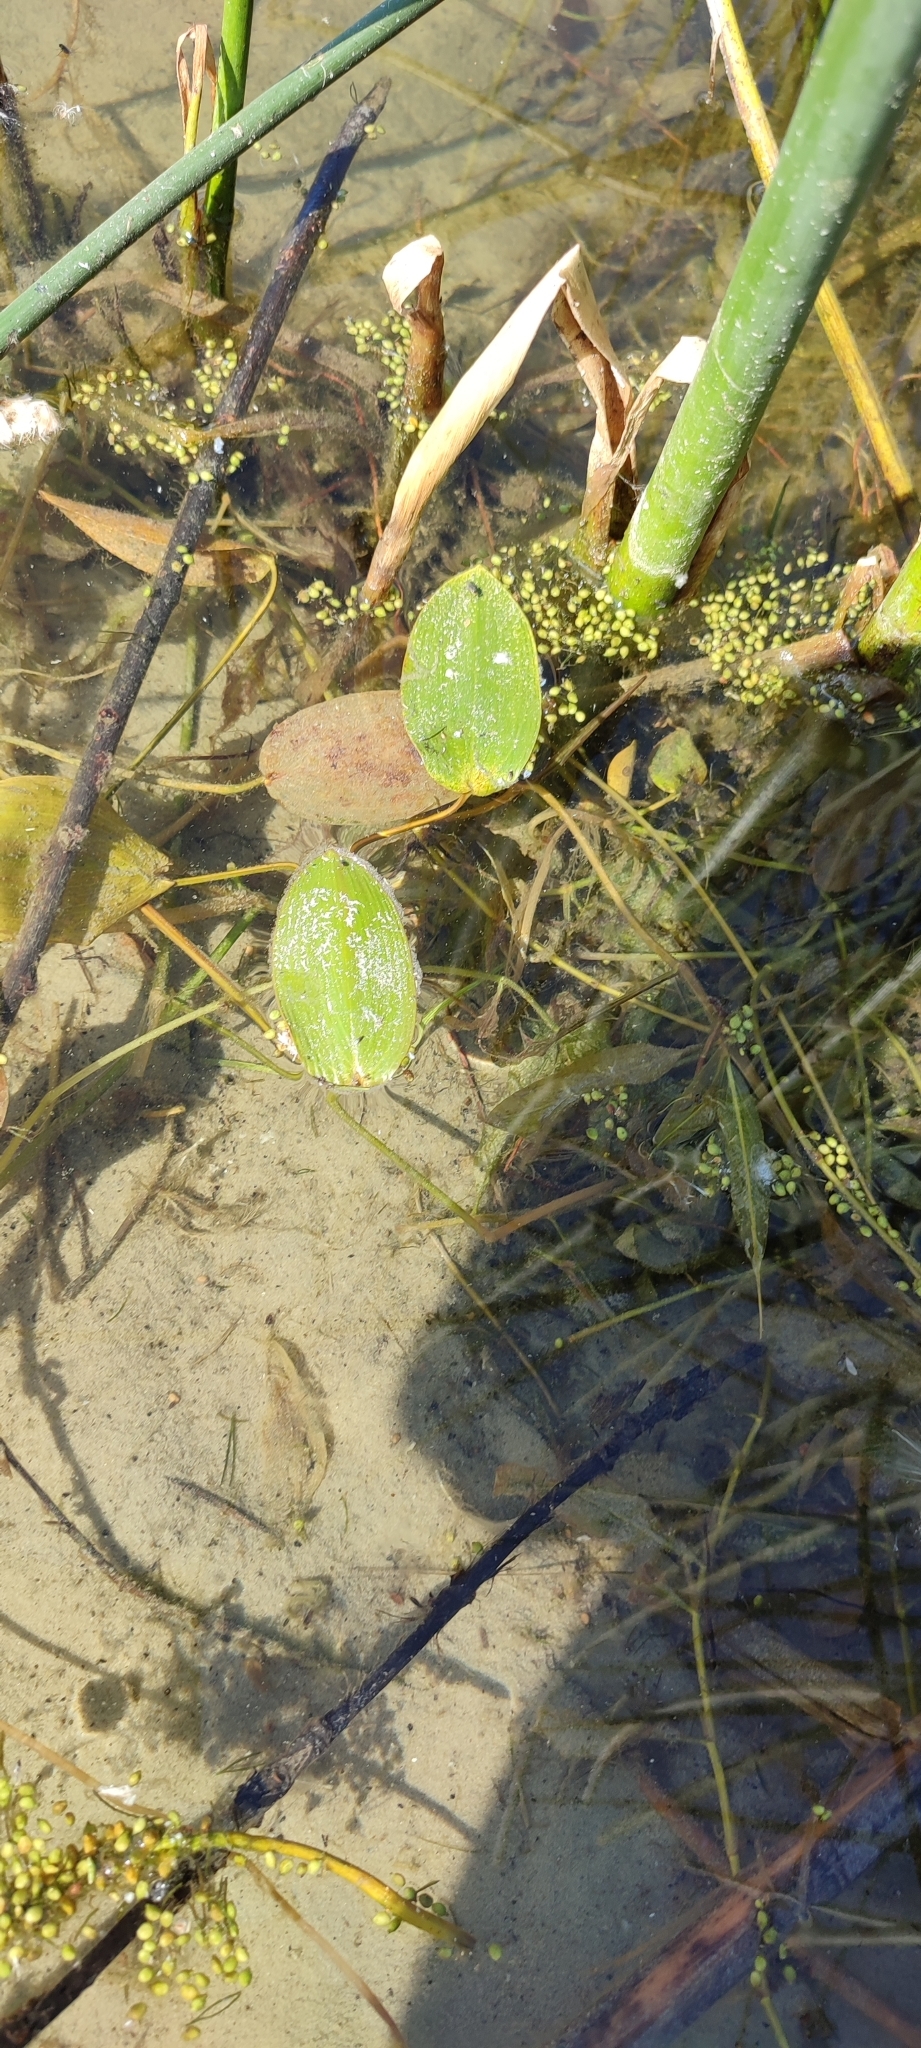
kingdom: Plantae
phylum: Tracheophyta
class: Liliopsida
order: Alismatales
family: Potamogetonaceae
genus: Potamogeton
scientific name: Potamogeton natans
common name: Broad-leaved pondweed
